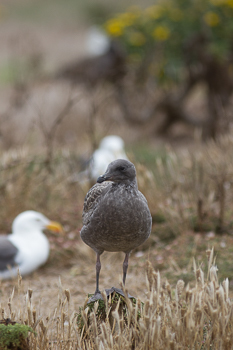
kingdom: Animalia
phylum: Chordata
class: Aves
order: Charadriiformes
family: Laridae
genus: Larus
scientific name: Larus occidentalis
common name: Western gull
